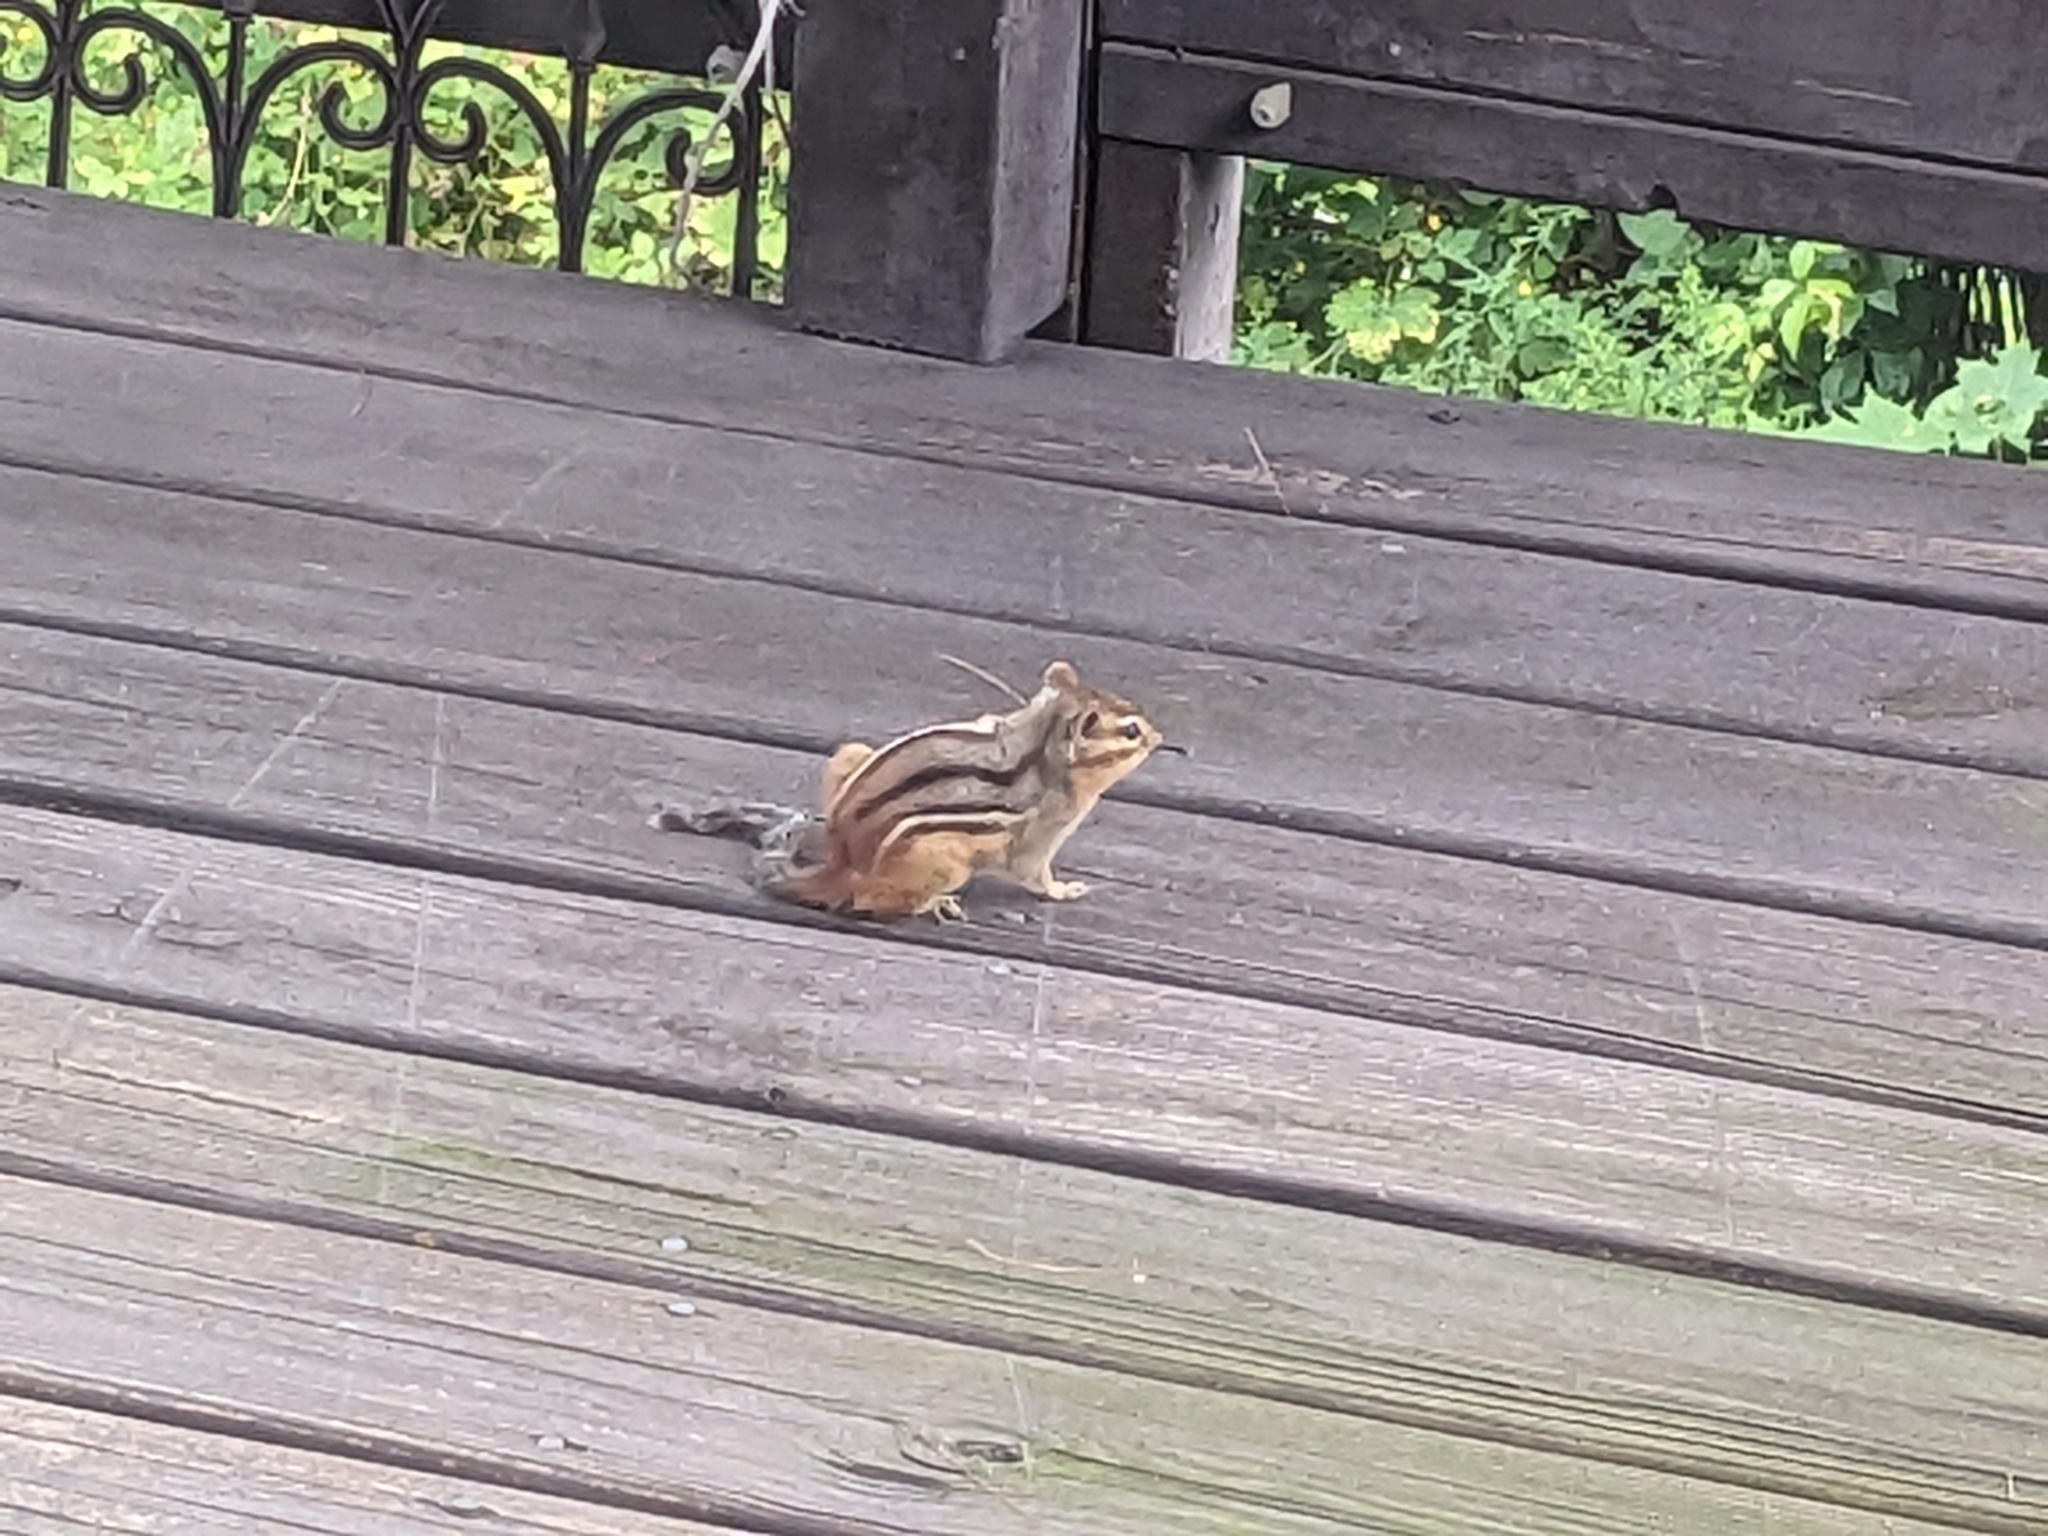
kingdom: Animalia
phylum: Chordata
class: Mammalia
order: Rodentia
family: Sciuridae
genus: Tamias
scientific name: Tamias striatus
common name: Eastern chipmunk
